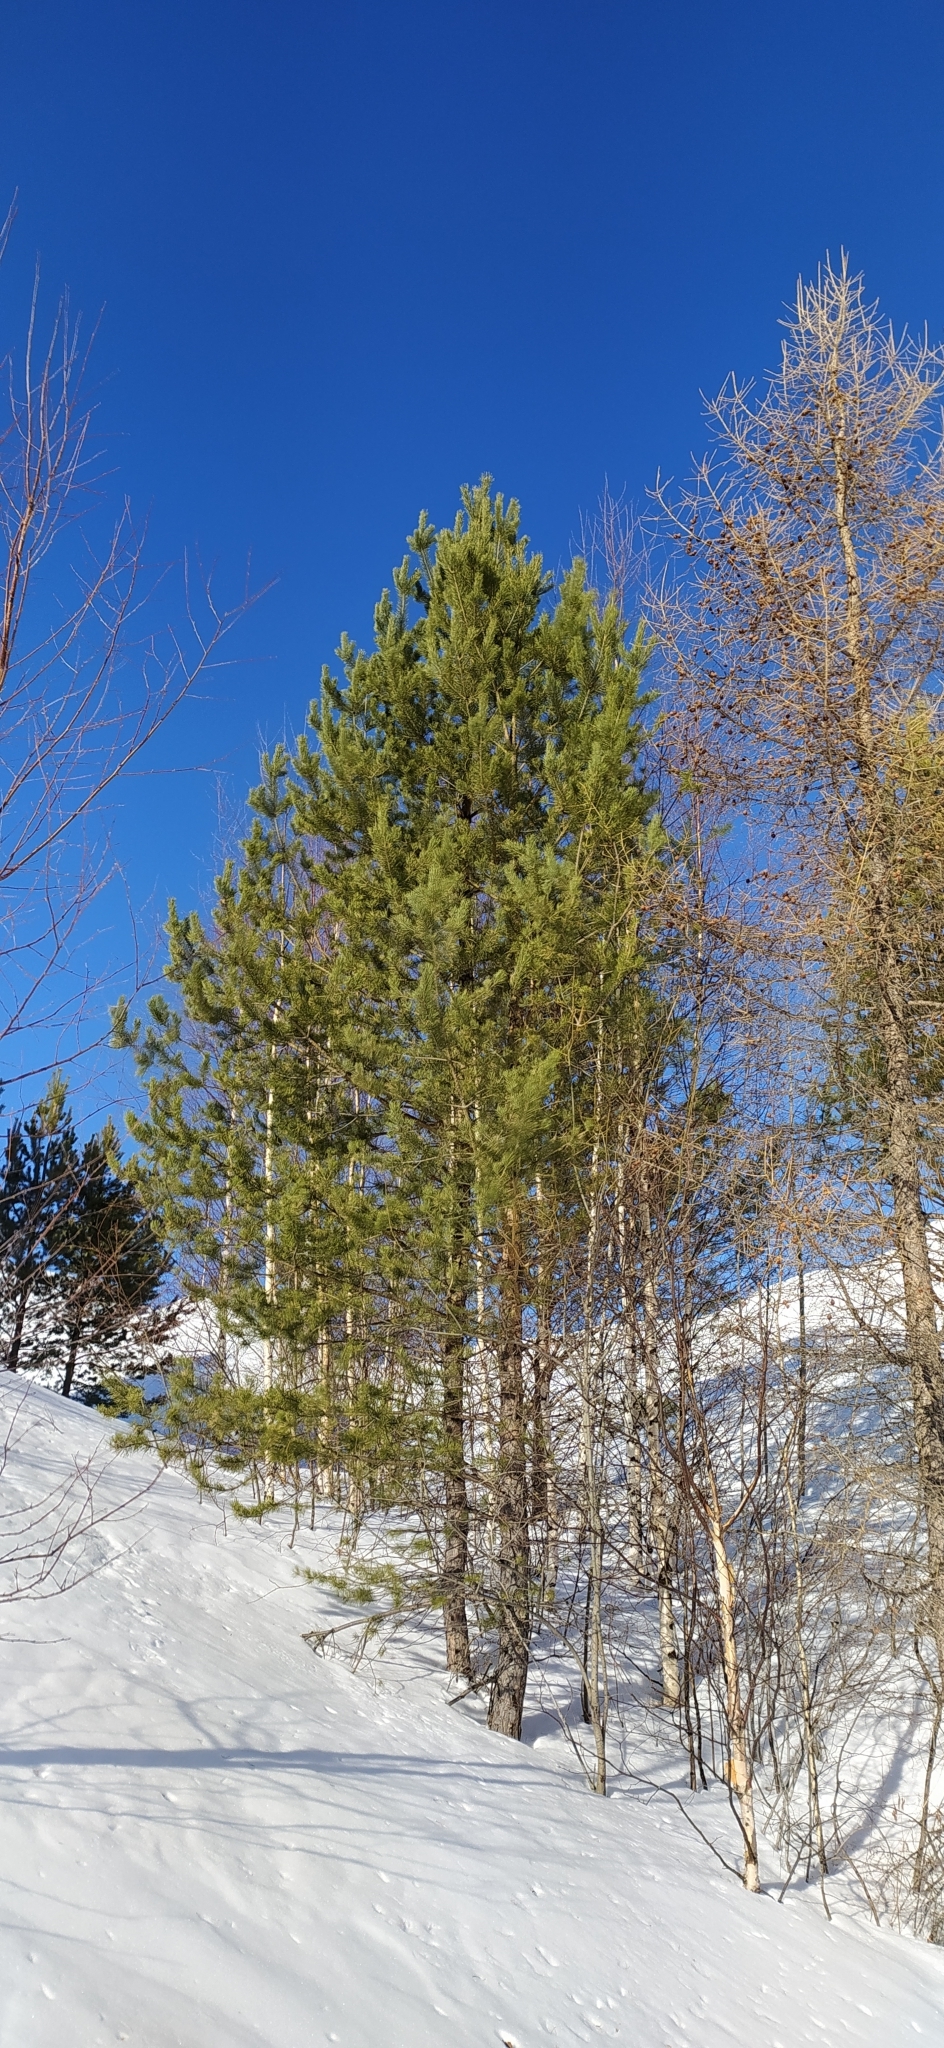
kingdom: Plantae
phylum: Tracheophyta
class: Pinopsida
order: Pinales
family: Pinaceae
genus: Pinus
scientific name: Pinus sylvestris
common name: Scots pine
